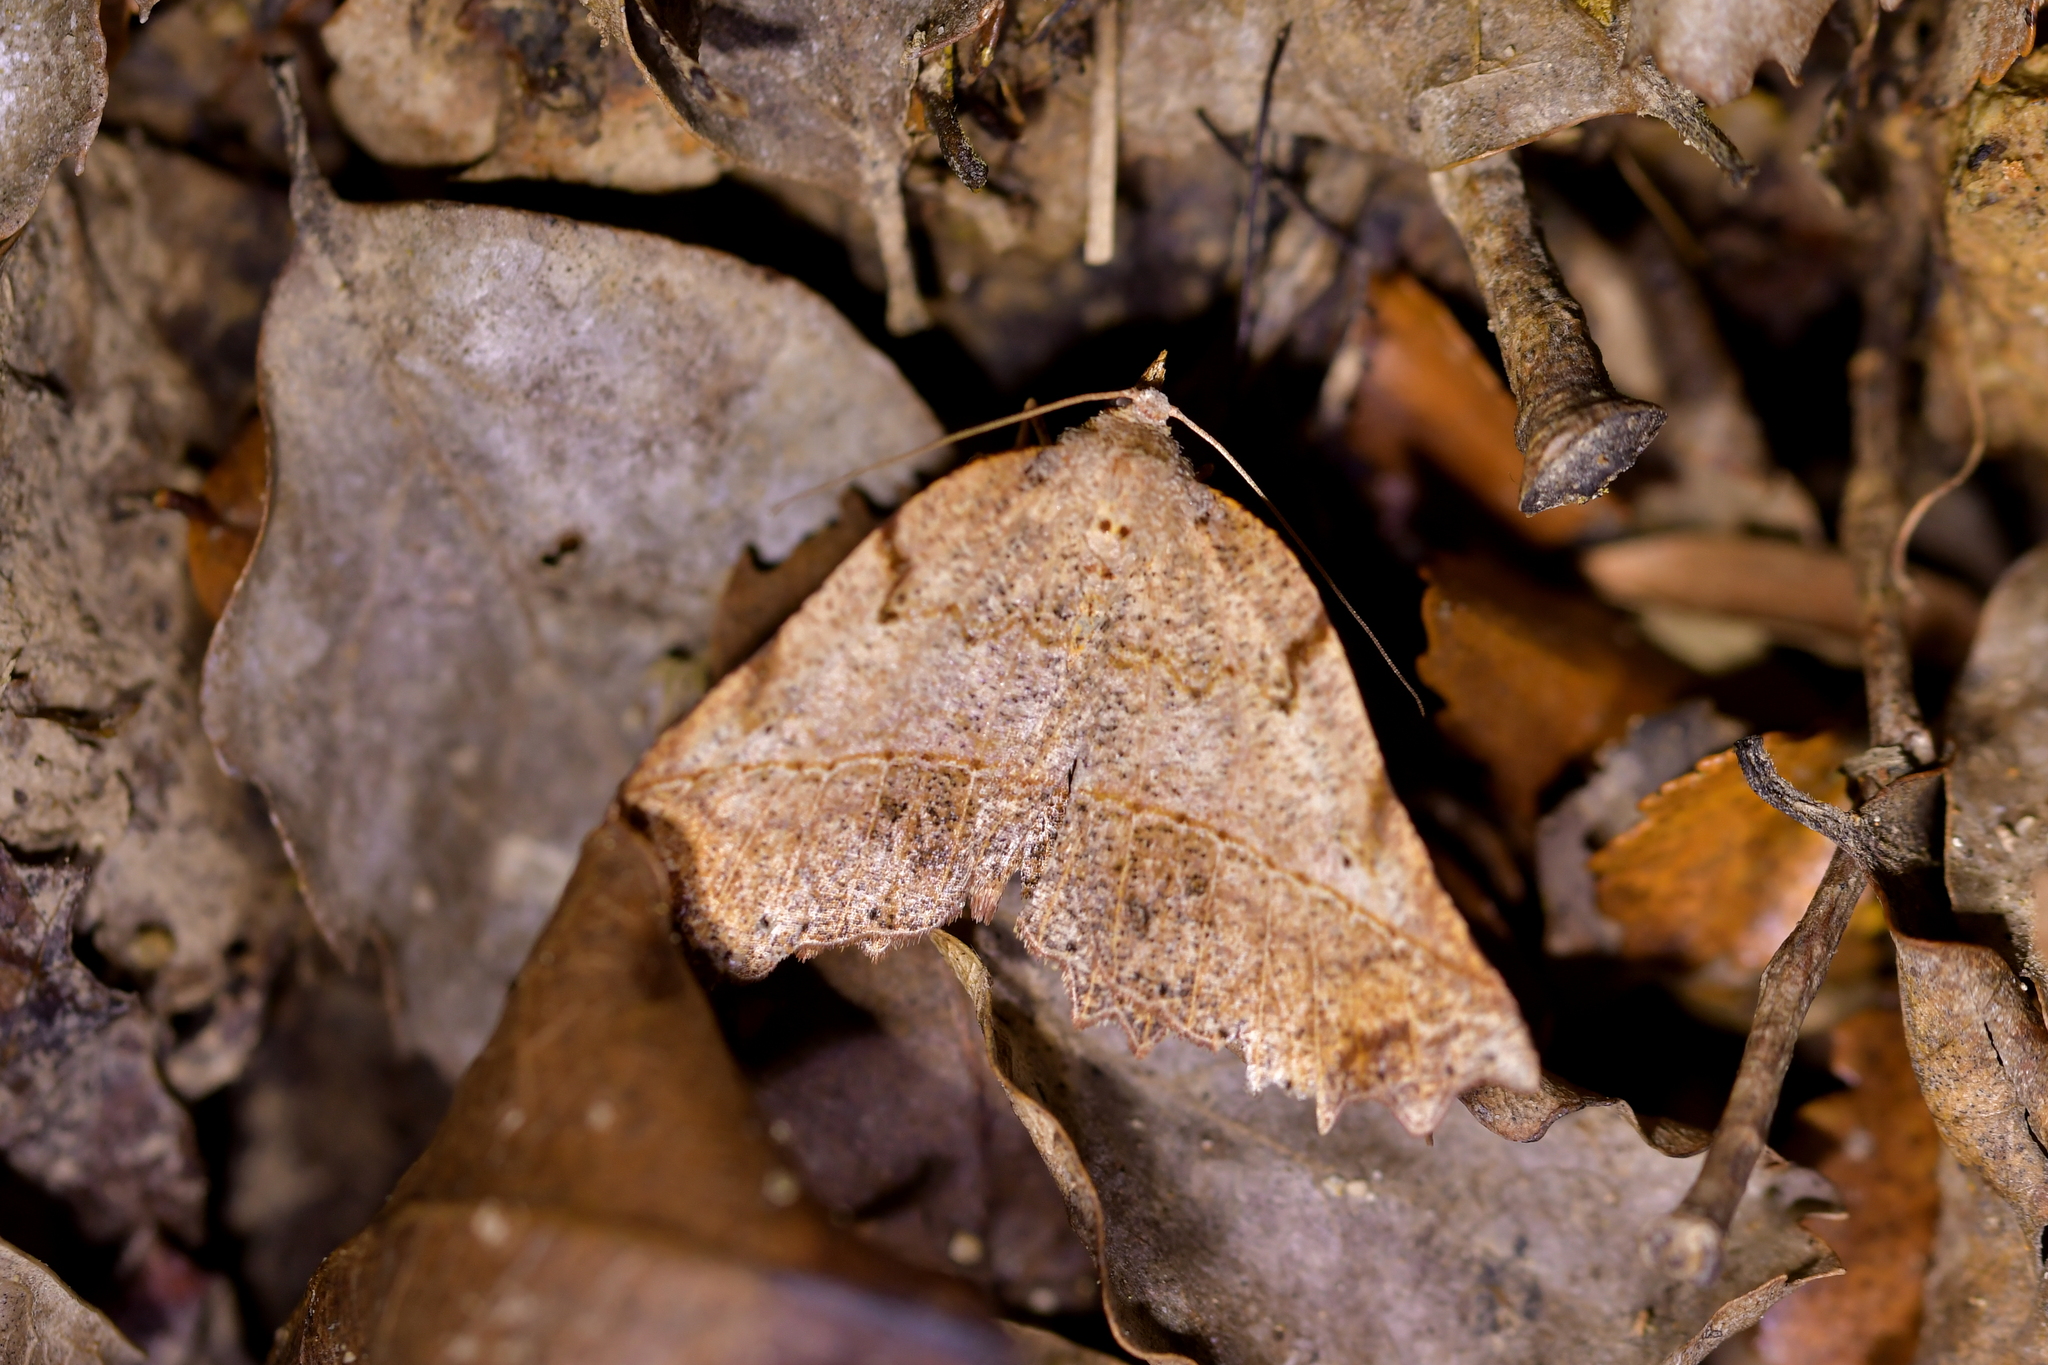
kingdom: Animalia
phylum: Arthropoda
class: Insecta
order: Lepidoptera
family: Geometridae
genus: Ischalis
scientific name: Ischalis gallaria
